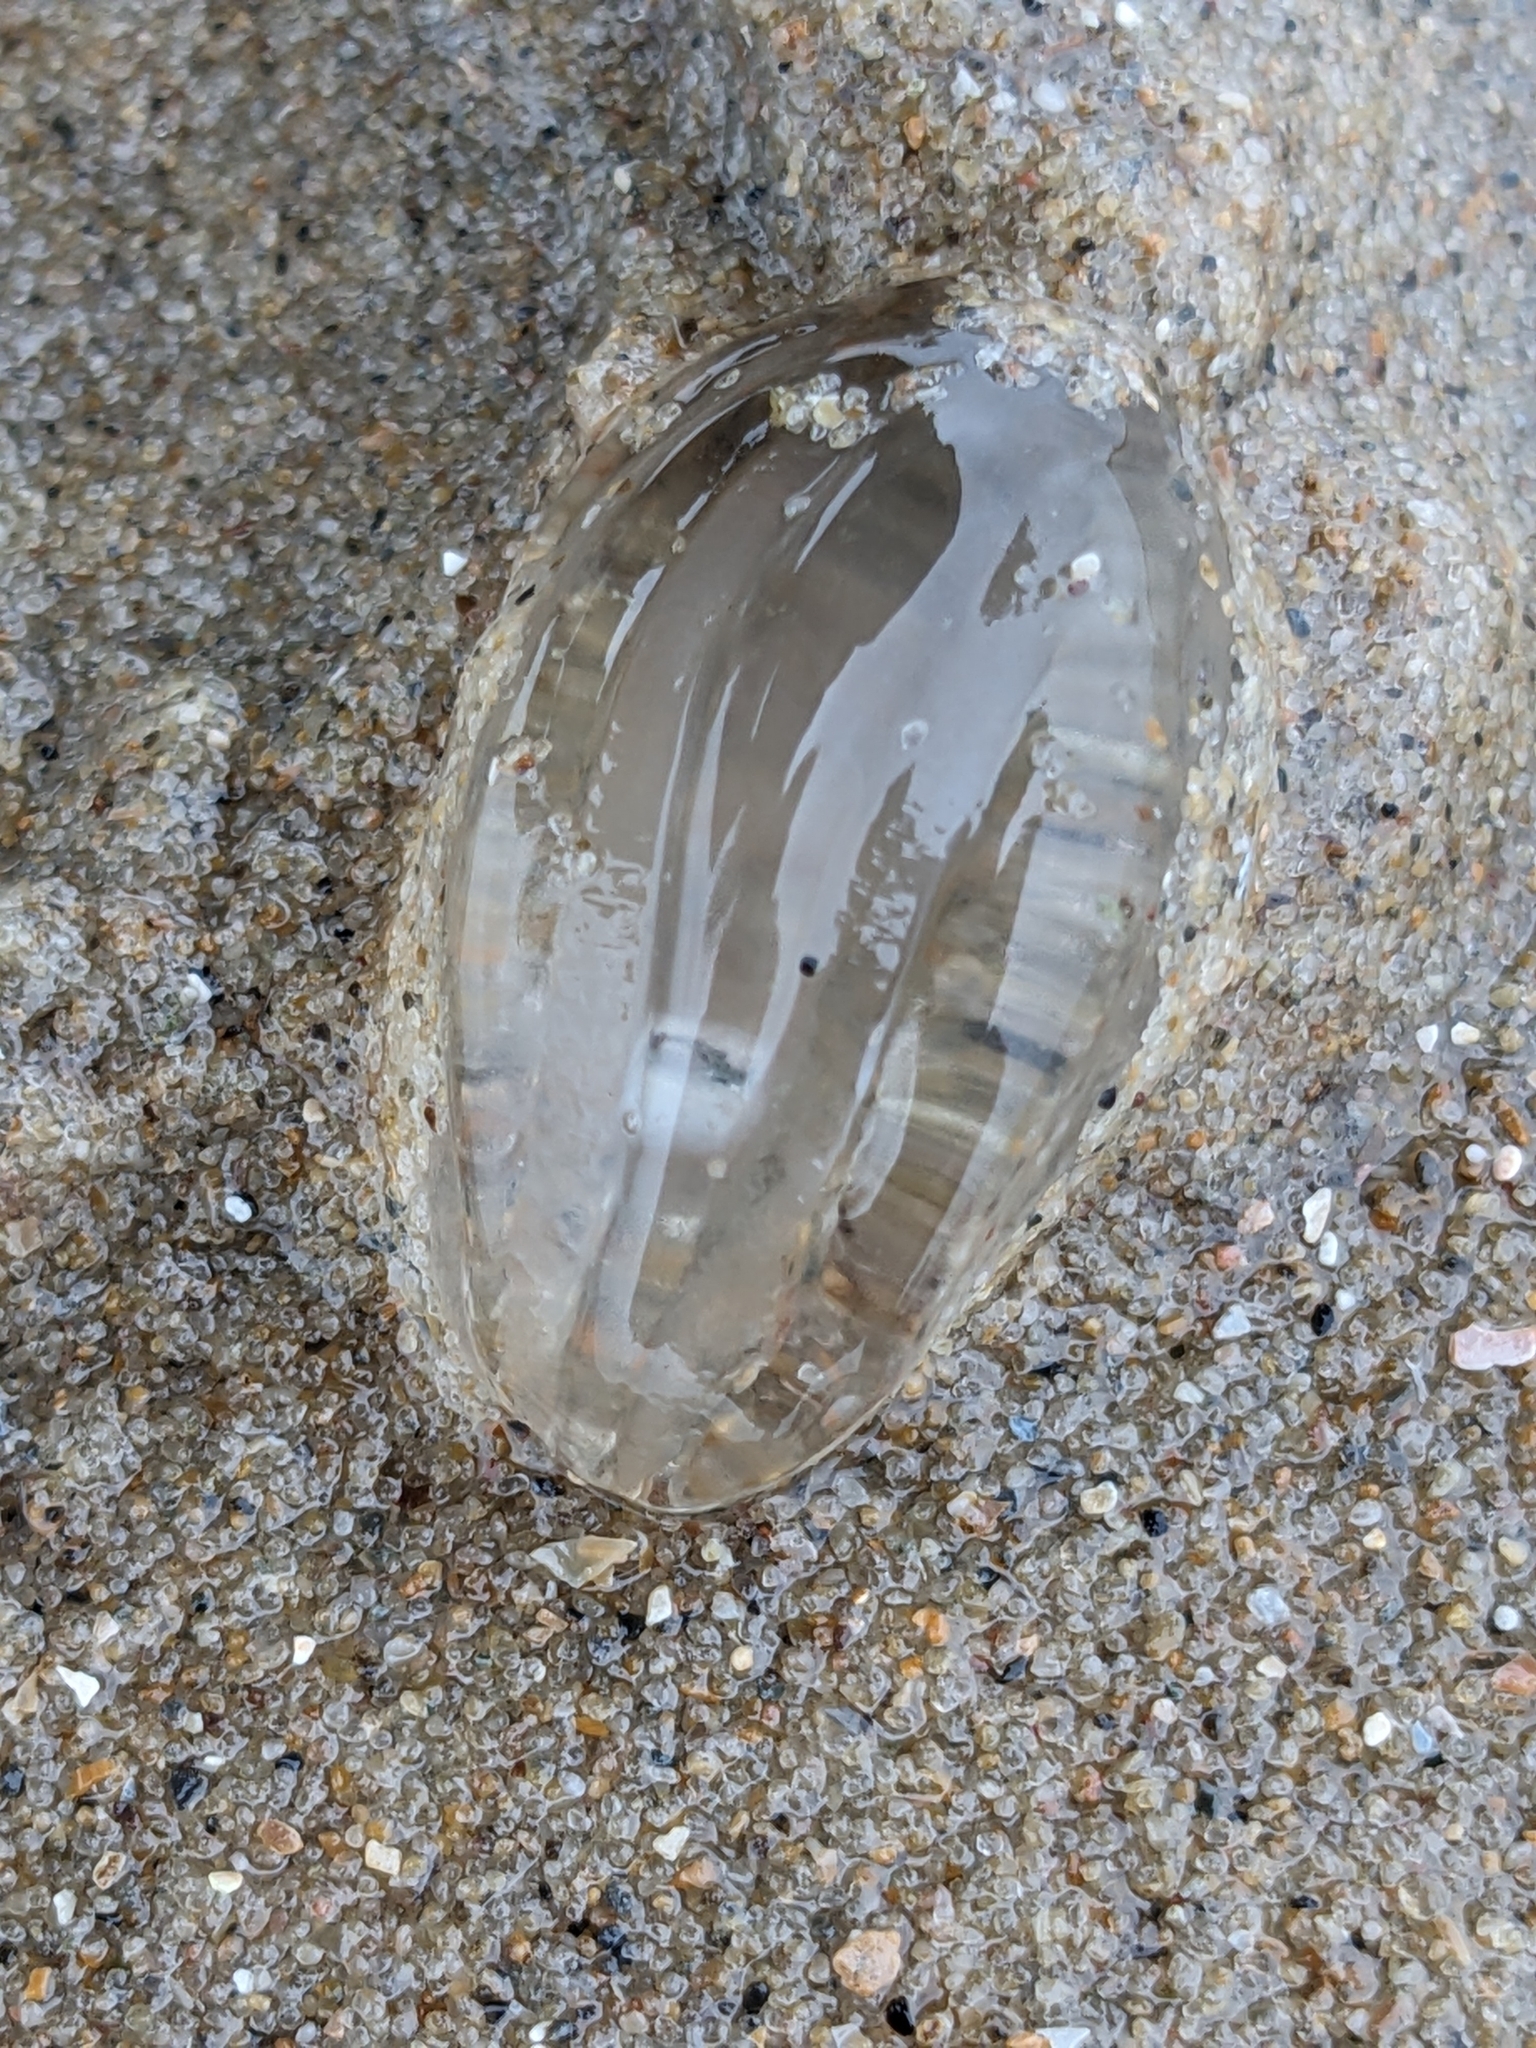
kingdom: Animalia
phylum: Ctenophora
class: Tentaculata
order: Cydippida
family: Pleurobrachiidae
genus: Pleurobrachia
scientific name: Pleurobrachia pileus
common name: Sea gooseberry
